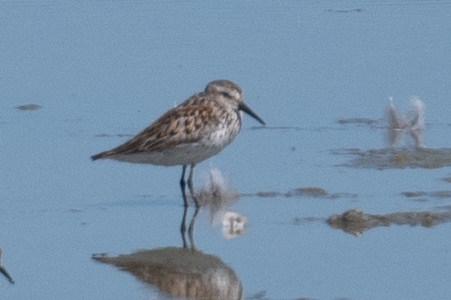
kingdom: Animalia
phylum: Chordata
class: Aves
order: Charadriiformes
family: Scolopacidae
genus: Calidris
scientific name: Calidris mauri
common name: Western sandpiper
